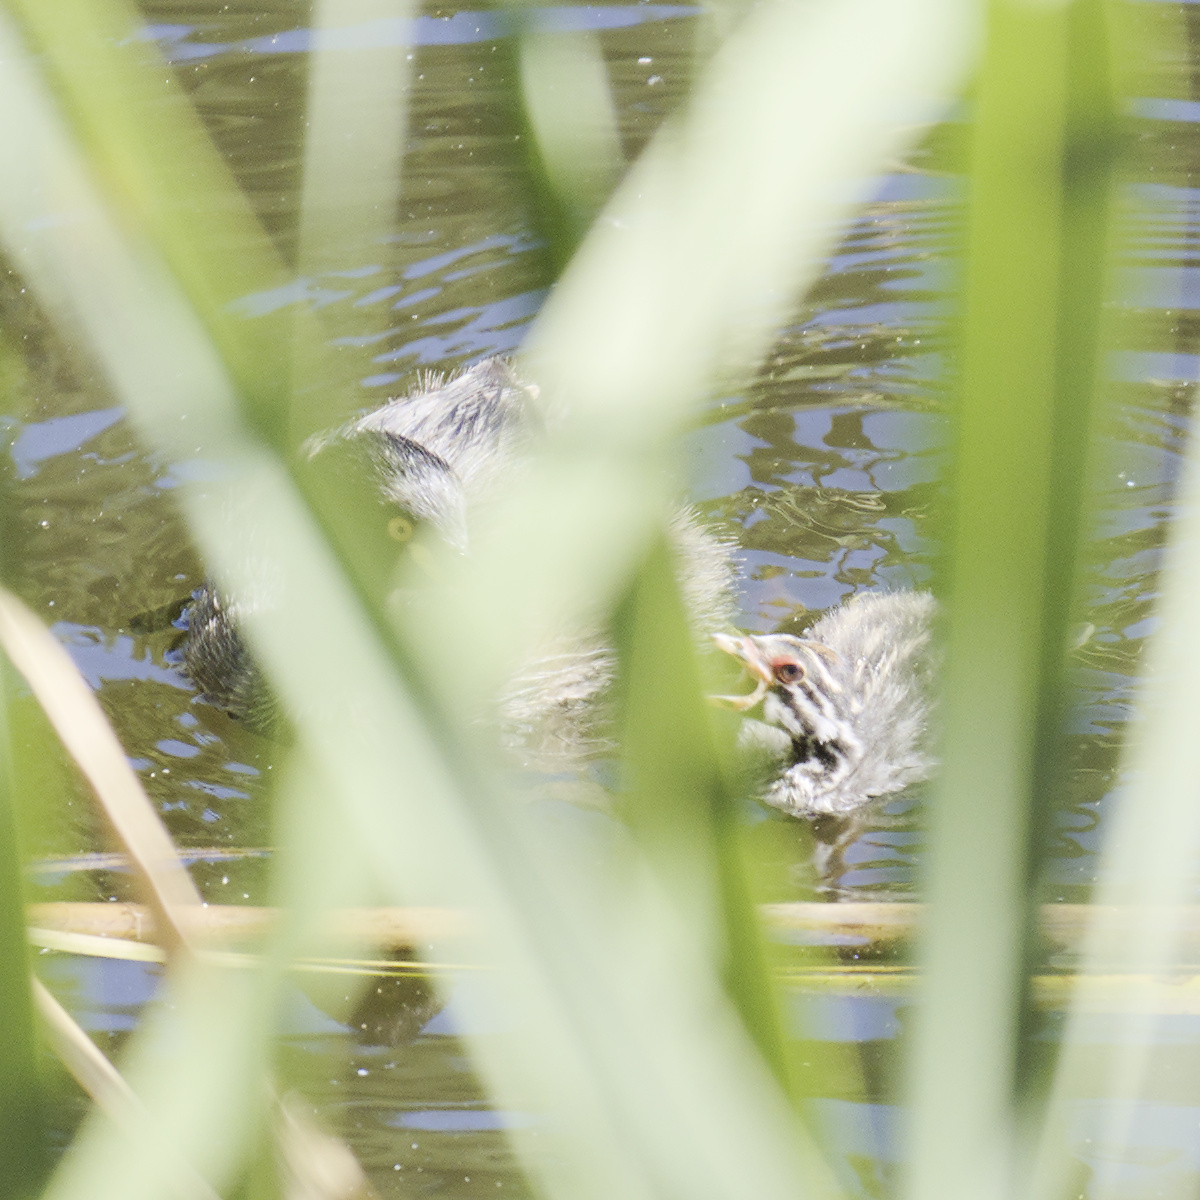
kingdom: Animalia
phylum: Chordata
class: Aves
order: Podicipediformes
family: Podicipedidae
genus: Tachybaptus
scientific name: Tachybaptus novaehollandiae
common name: Australasian grebe
